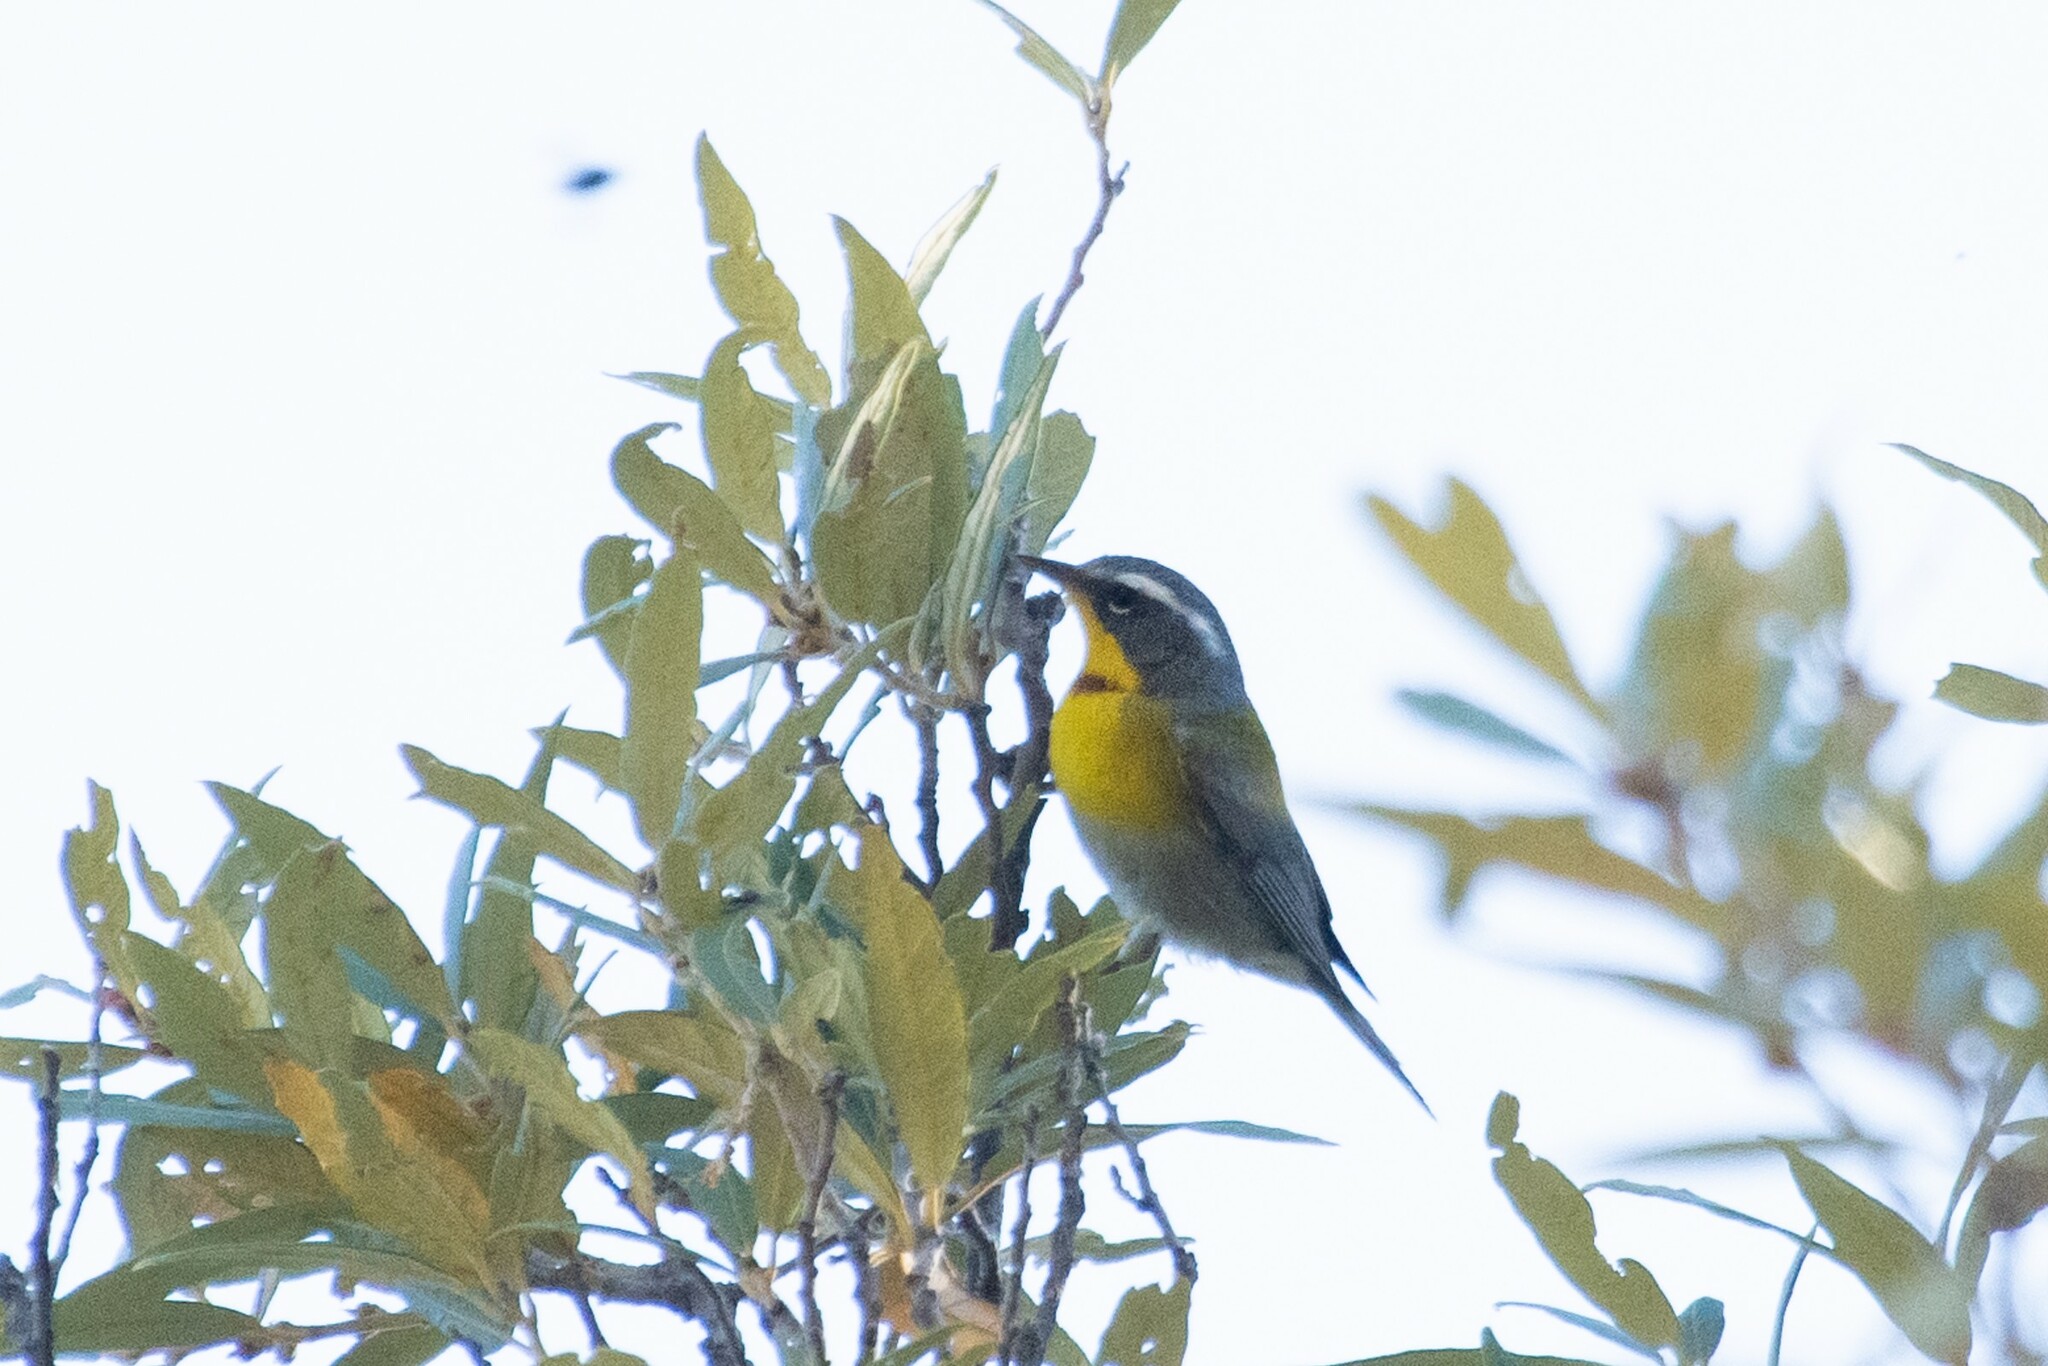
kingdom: Animalia
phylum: Chordata
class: Aves
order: Passeriformes
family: Parulidae
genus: Oreothlypis
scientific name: Oreothlypis superciliosa
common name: Crescent-chested warbler
